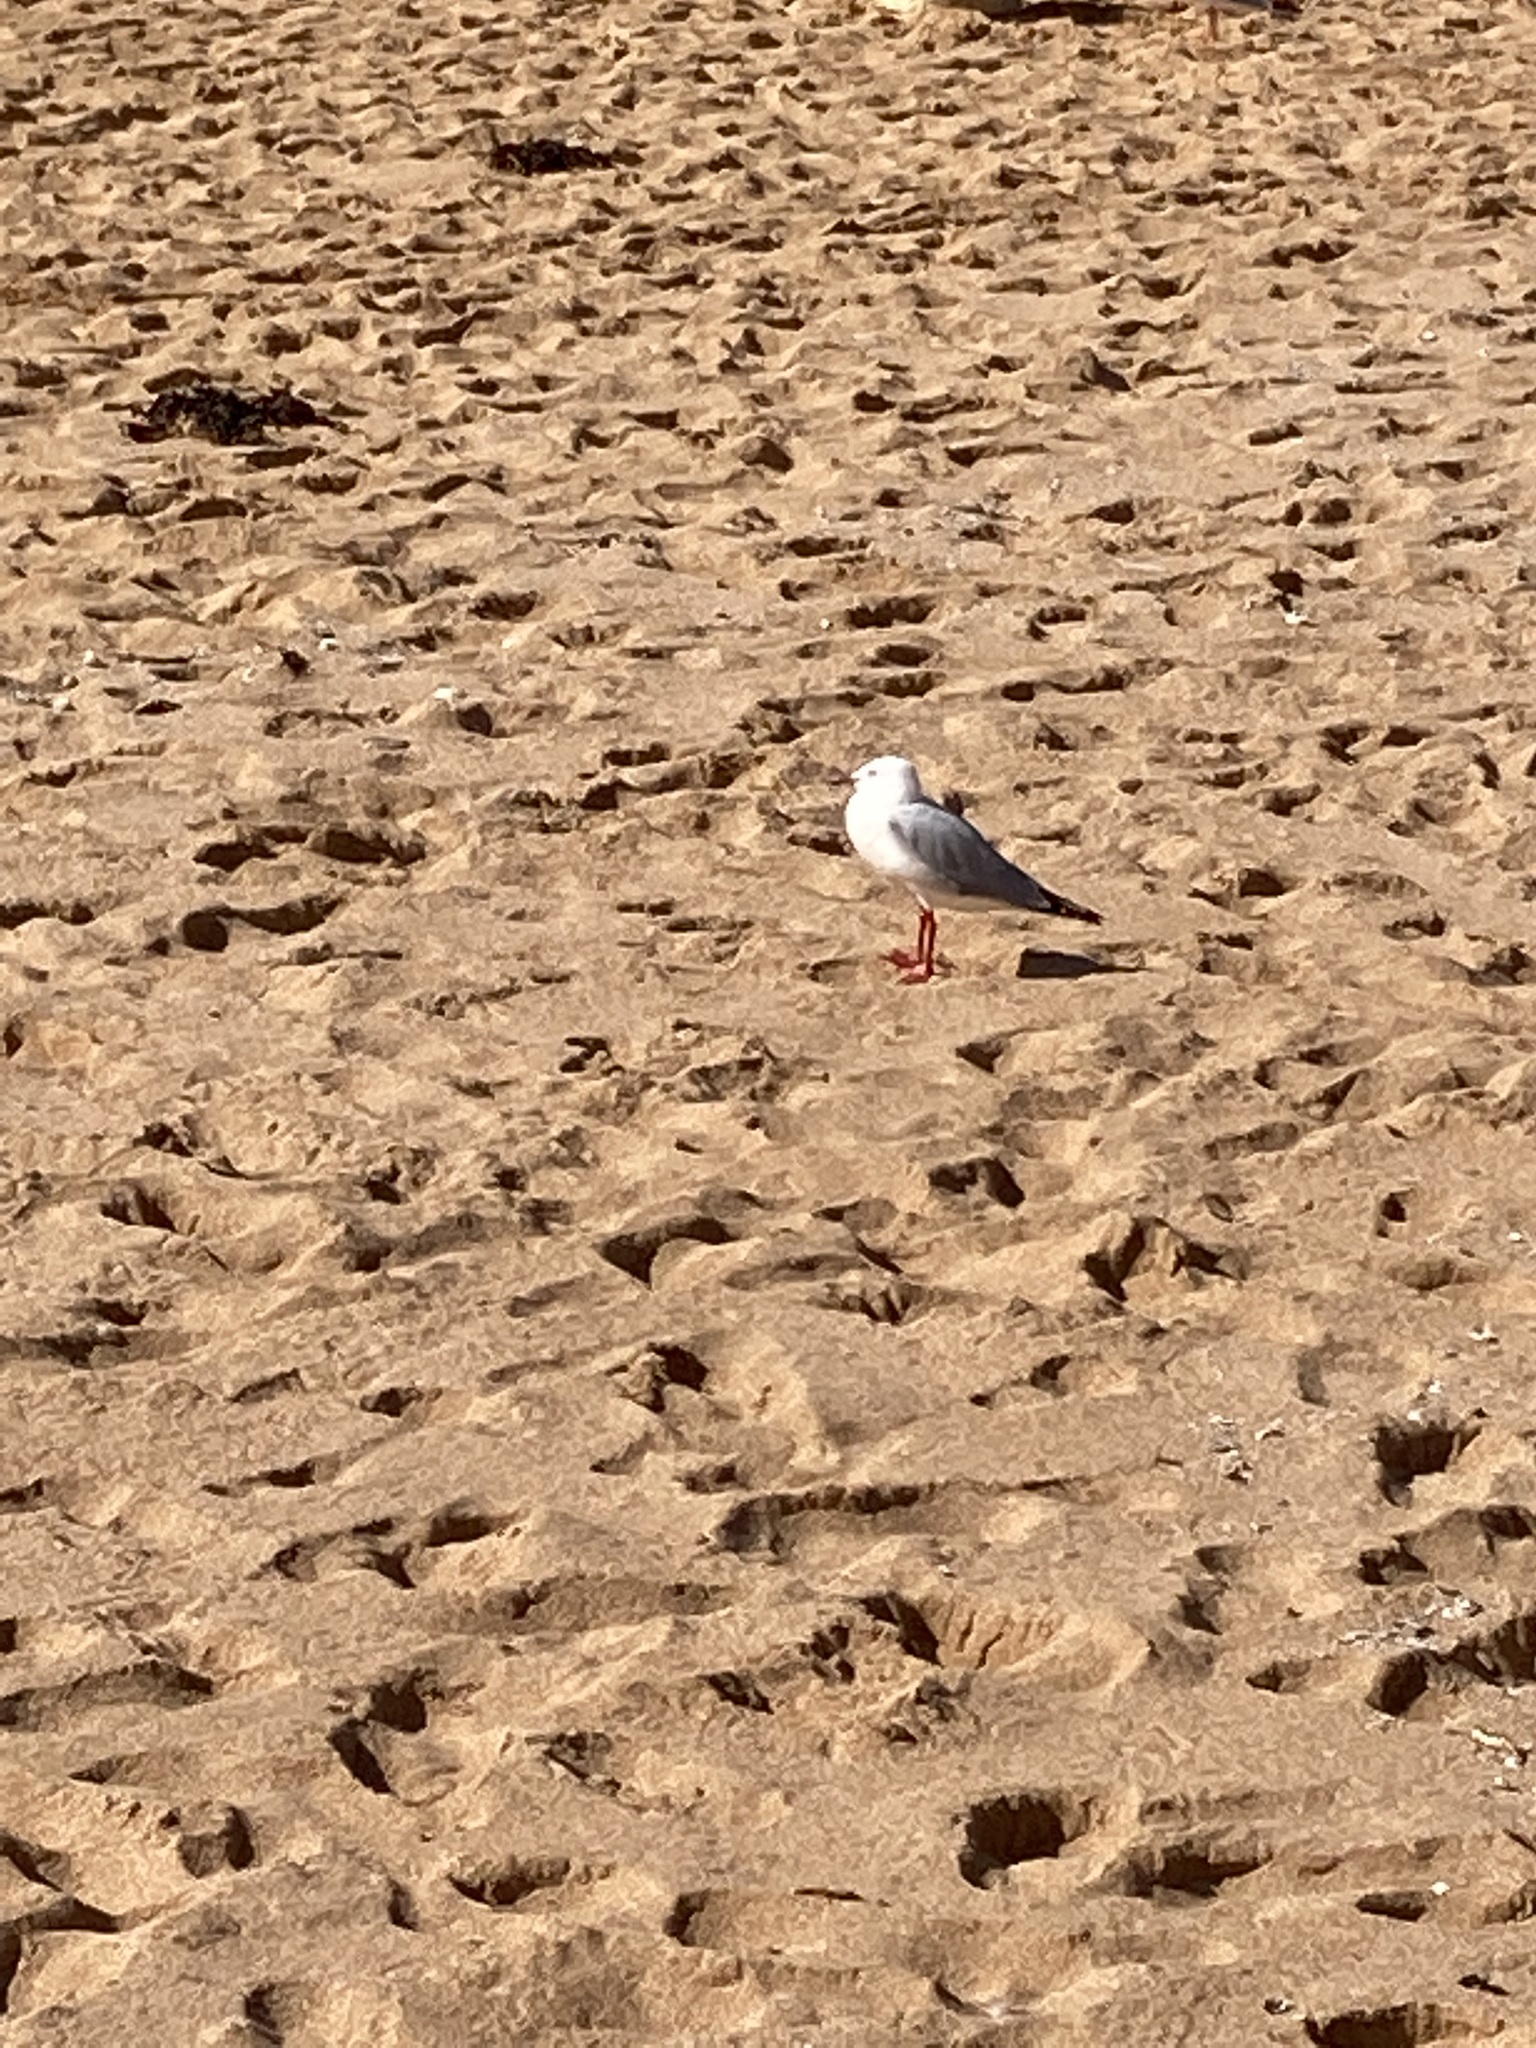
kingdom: Animalia
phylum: Chordata
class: Aves
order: Charadriiformes
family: Laridae
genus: Chroicocephalus
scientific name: Chroicocephalus novaehollandiae
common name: Silver gull
